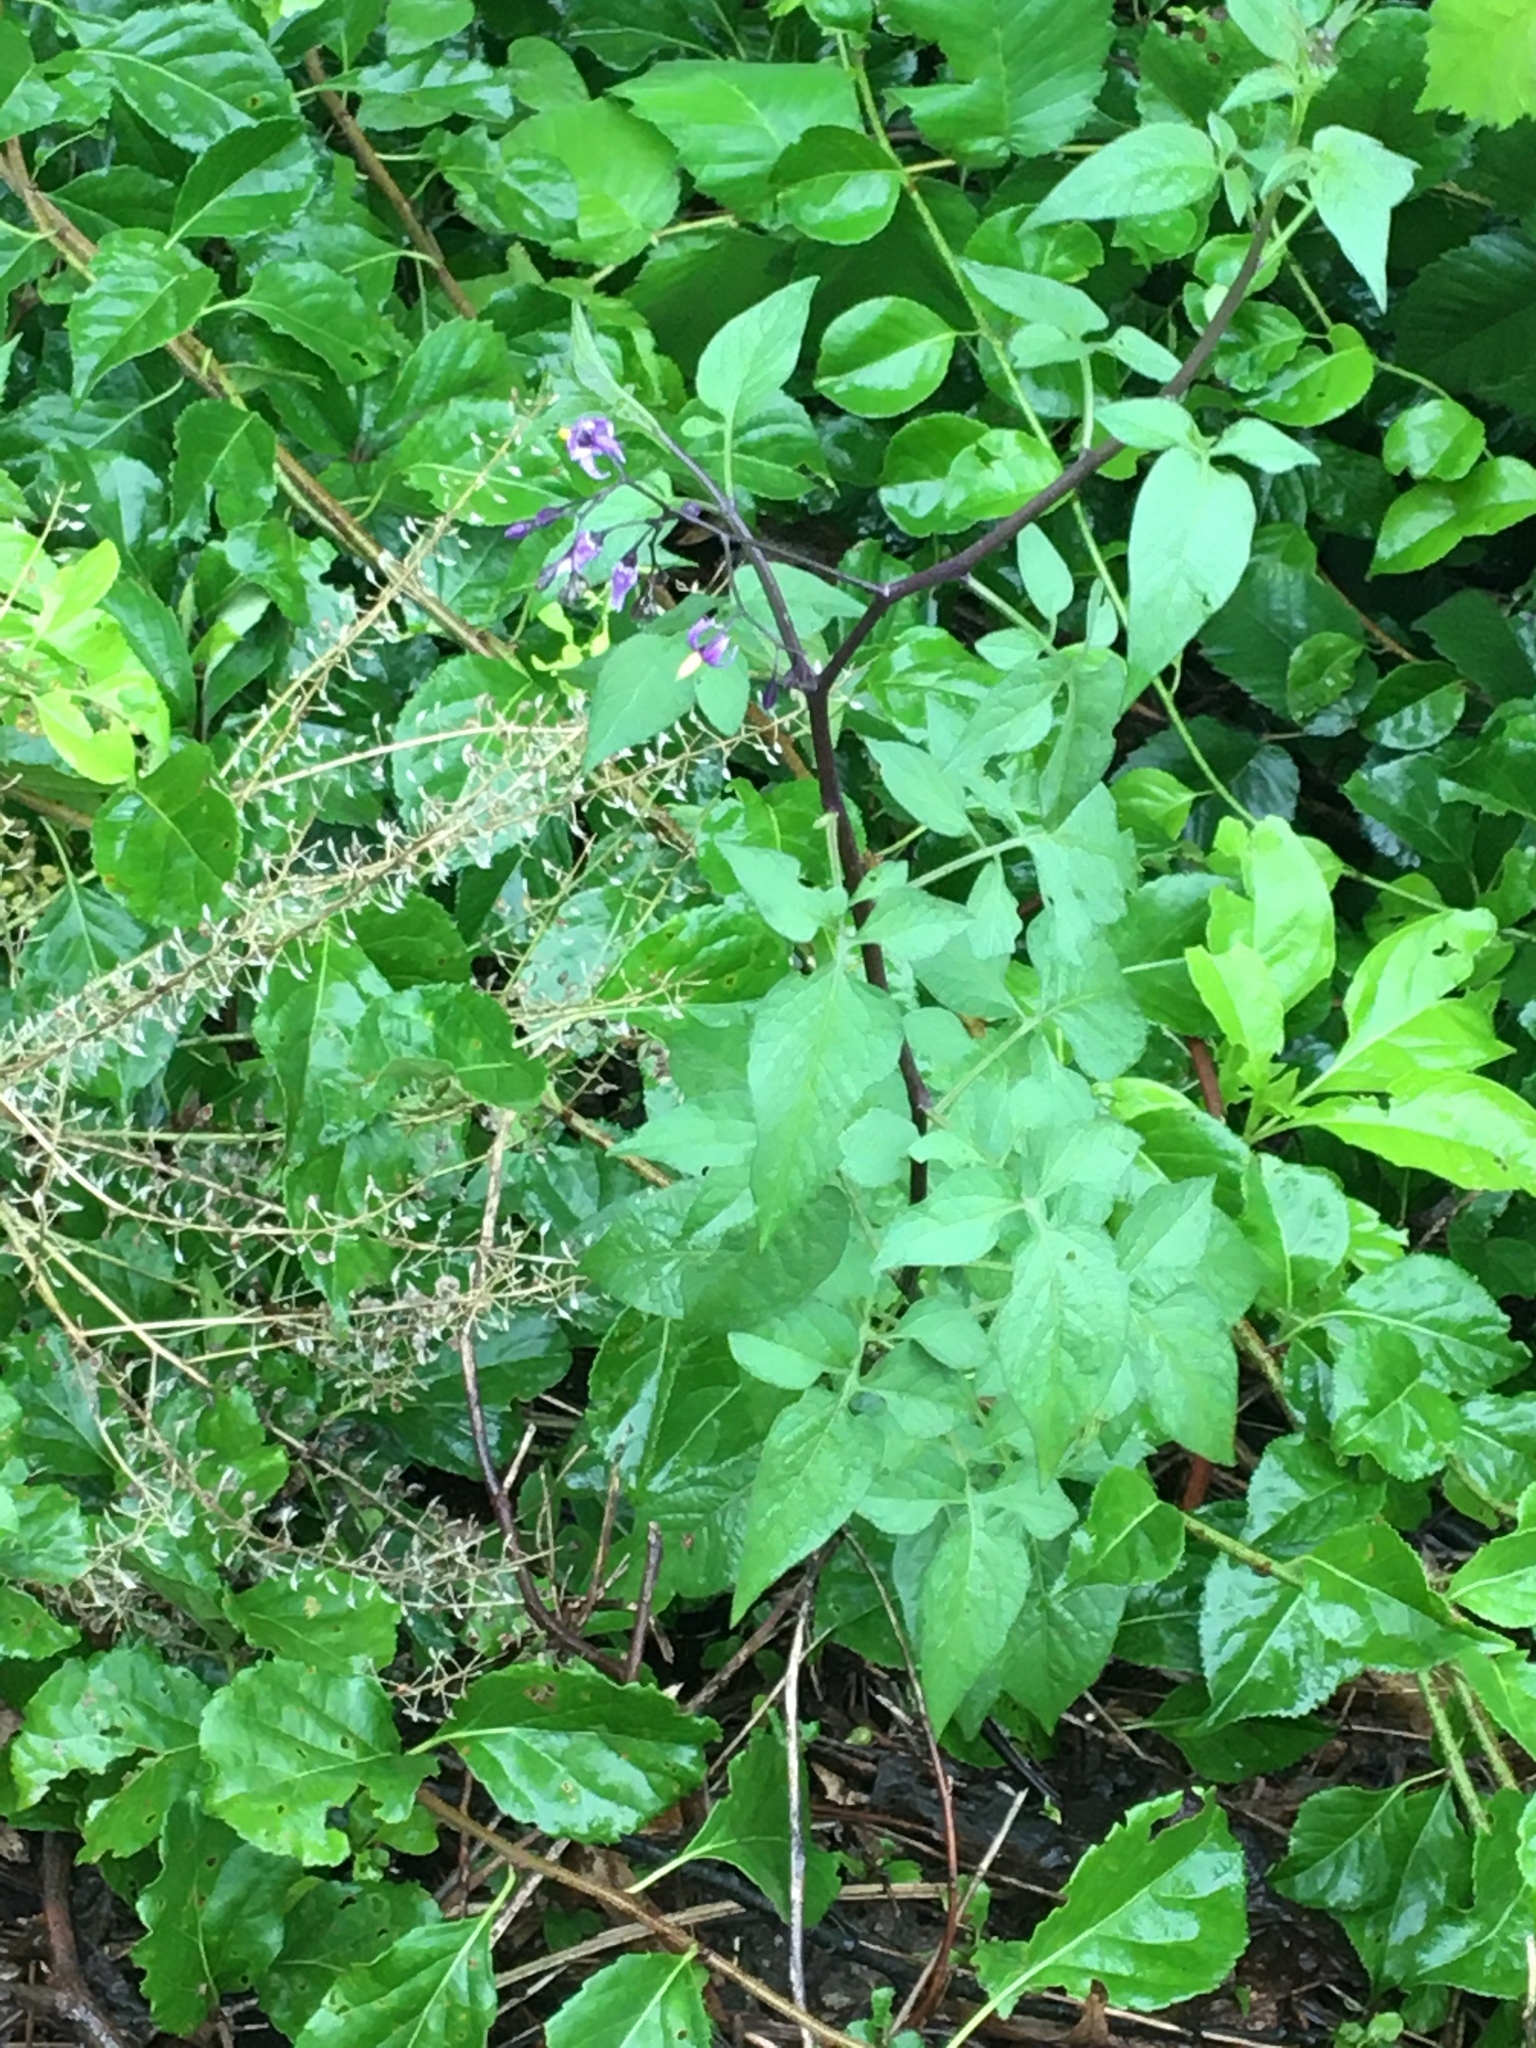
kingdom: Plantae
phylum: Tracheophyta
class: Magnoliopsida
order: Solanales
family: Solanaceae
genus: Solanum
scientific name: Solanum dulcamara
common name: Climbing nightshade
